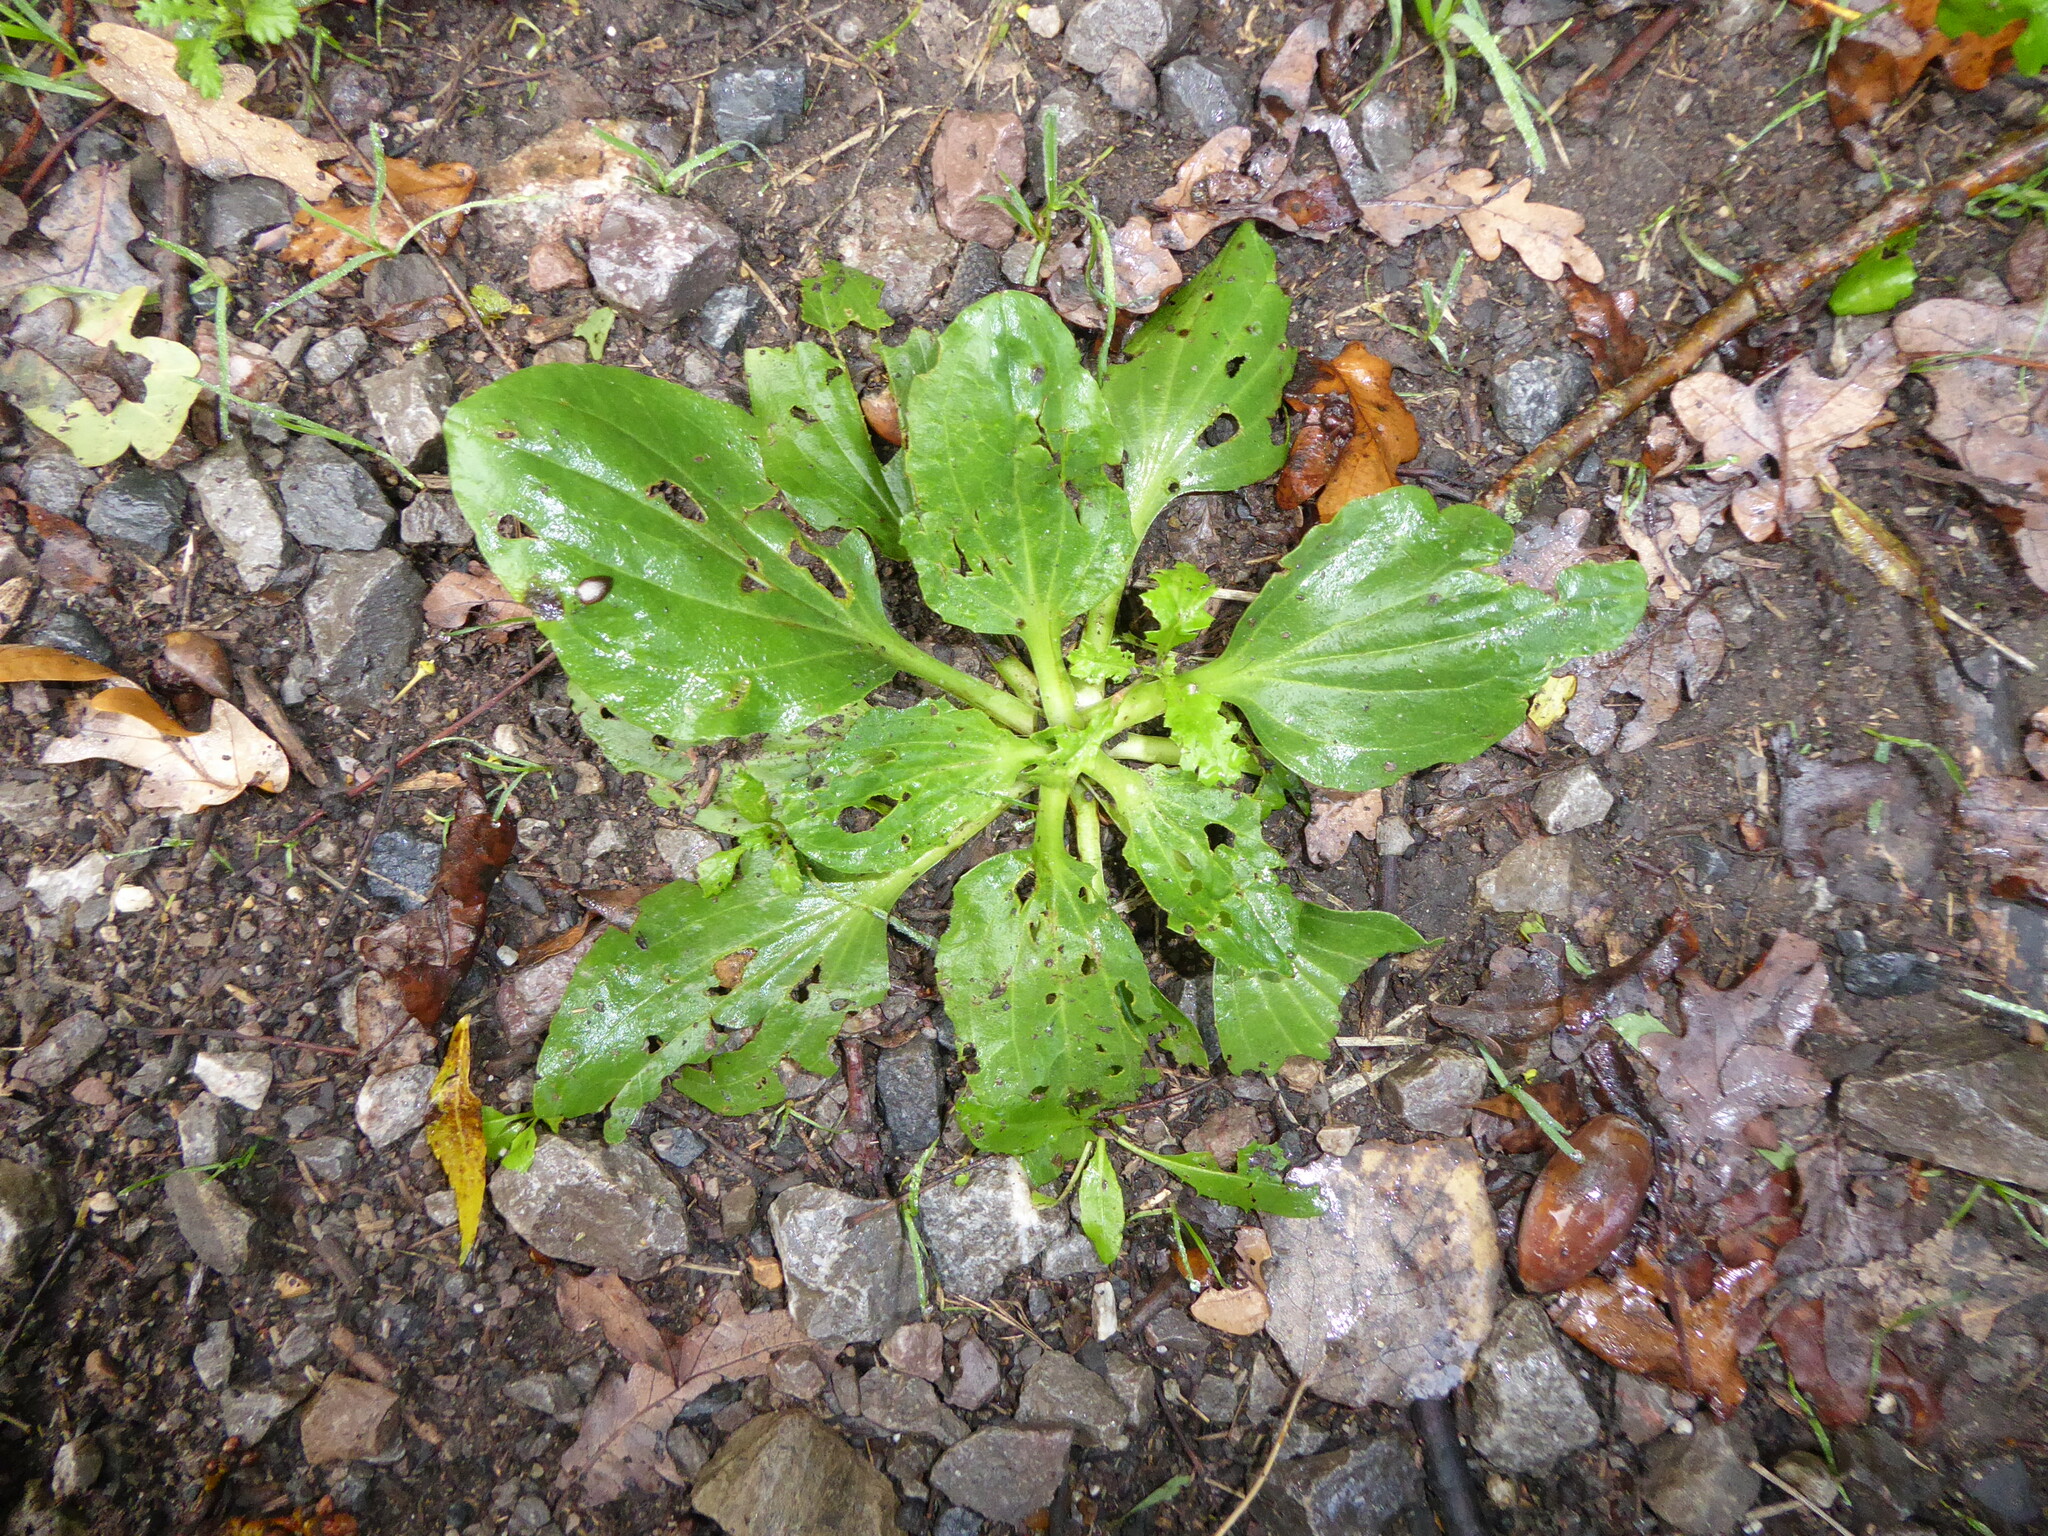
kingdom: Plantae
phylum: Tracheophyta
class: Magnoliopsida
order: Lamiales
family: Plantaginaceae
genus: Plantago
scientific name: Plantago major
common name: Common plantain
